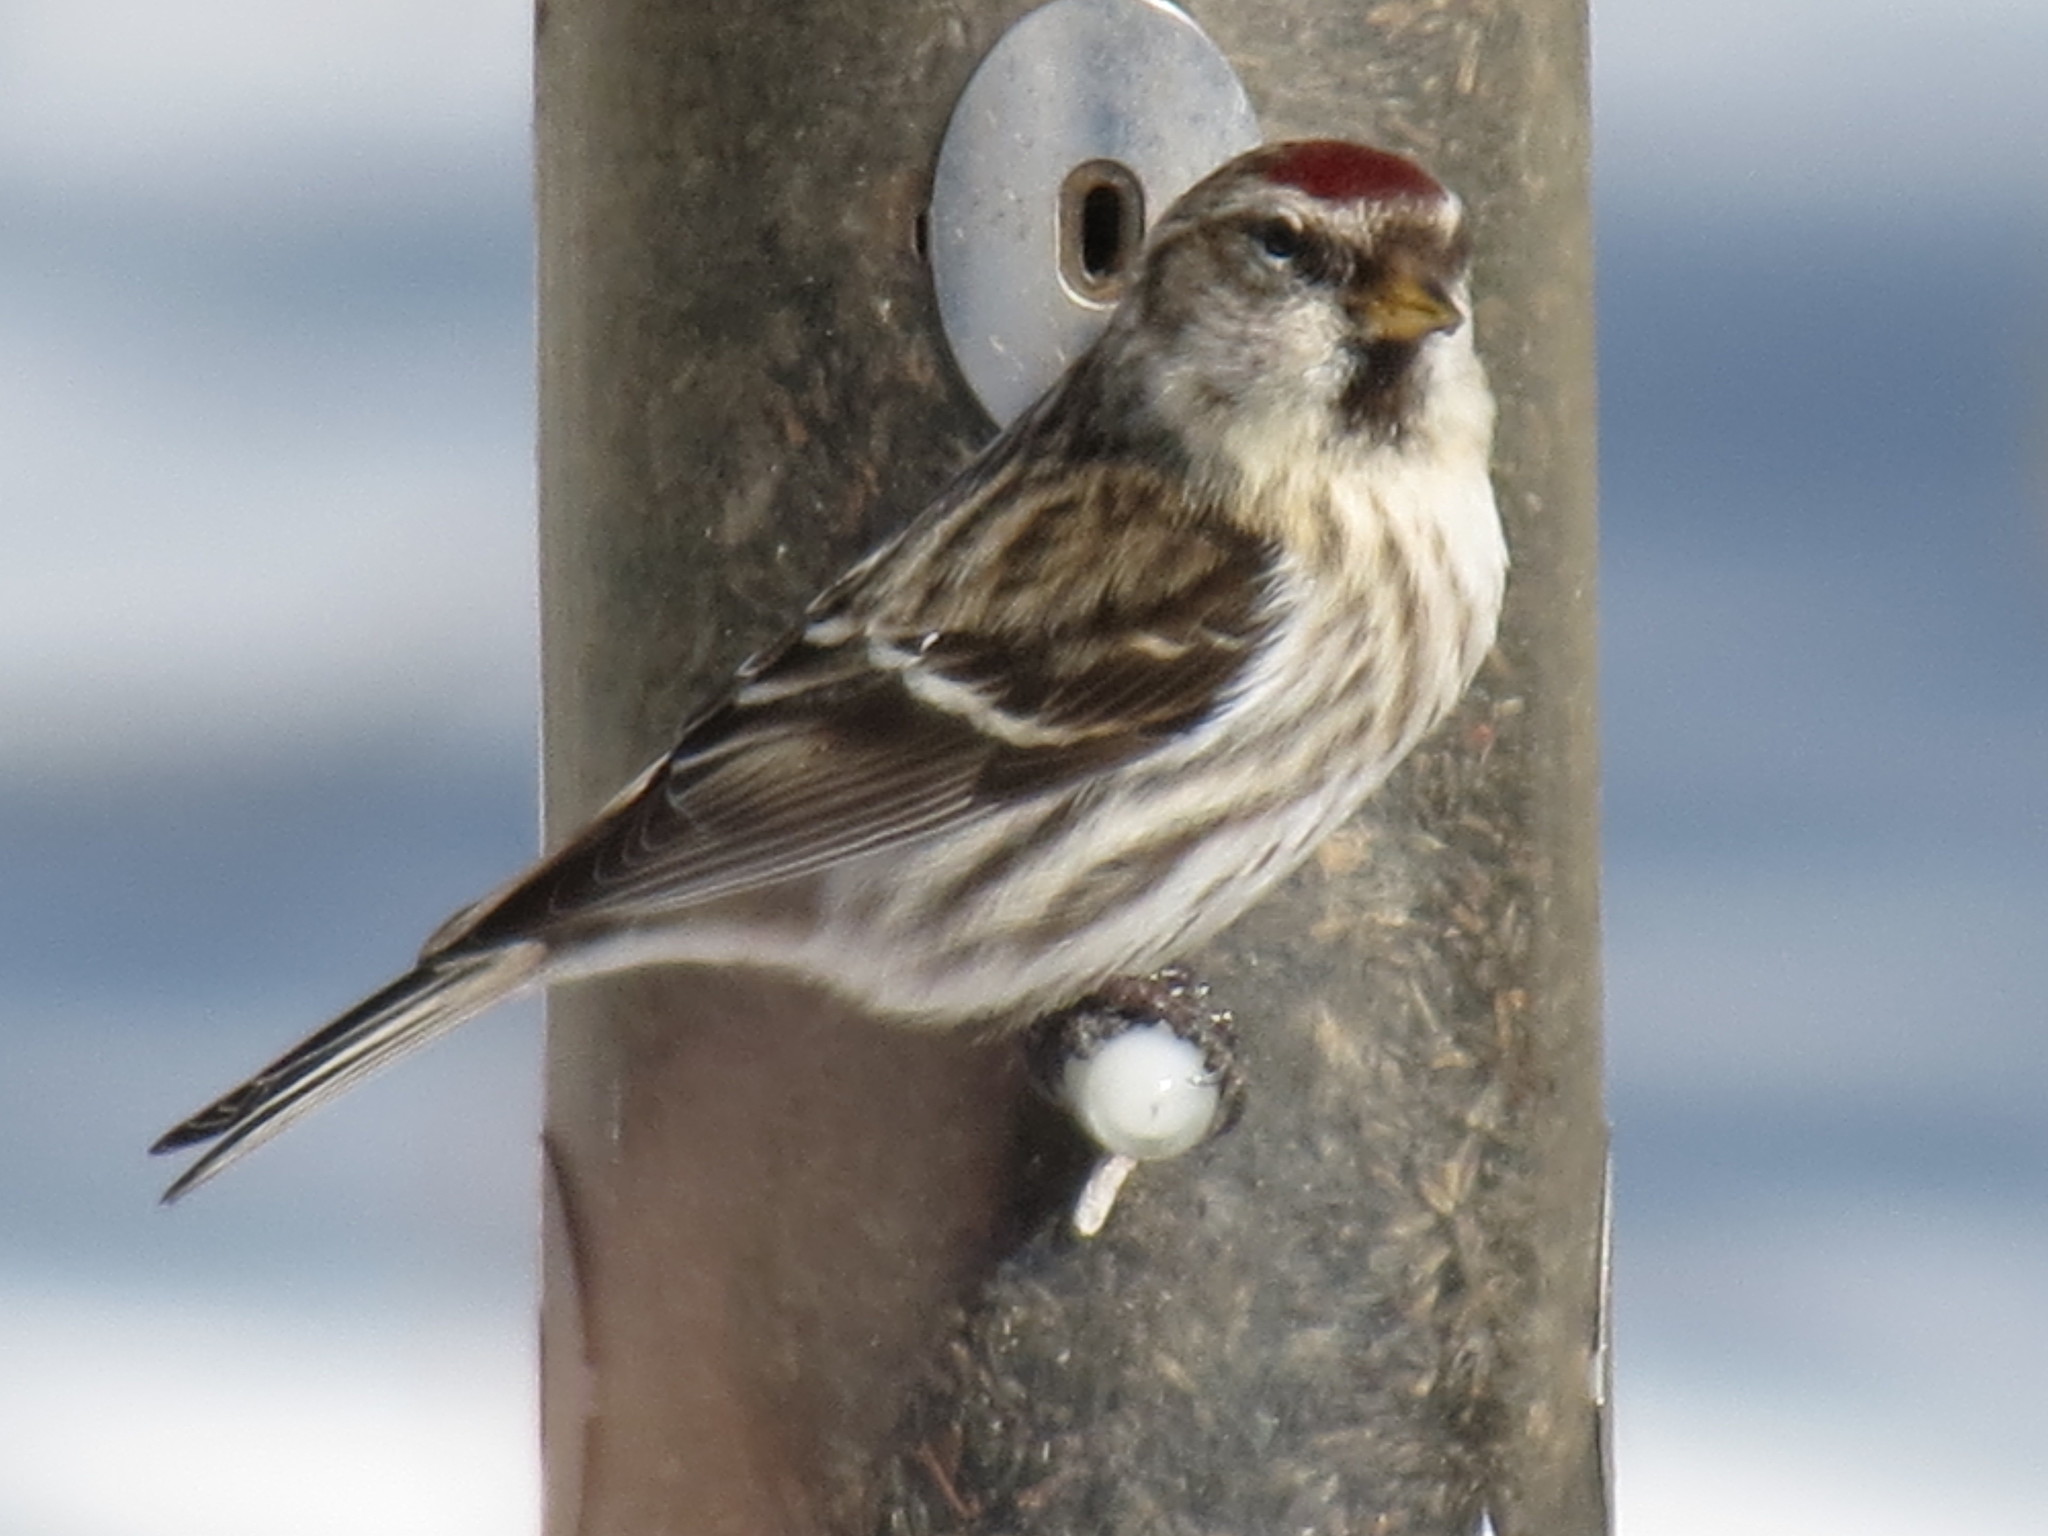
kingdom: Animalia
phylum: Chordata
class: Aves
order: Passeriformes
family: Fringillidae
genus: Acanthis
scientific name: Acanthis flammea
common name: Common redpoll
